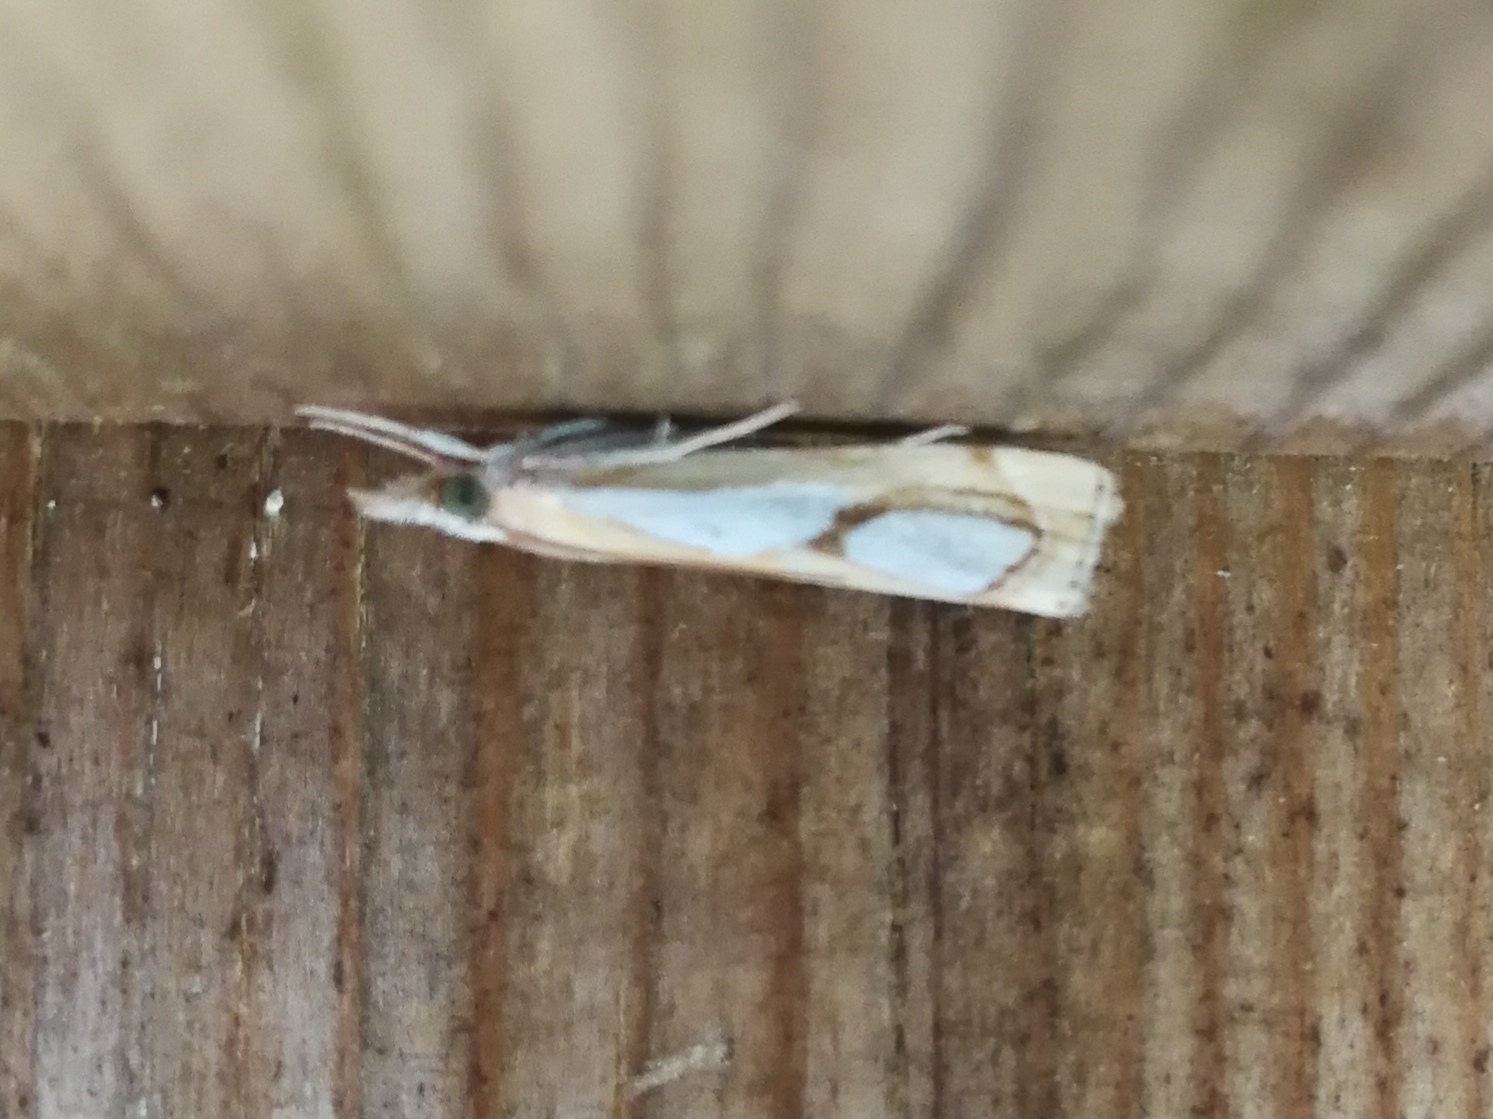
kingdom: Animalia
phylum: Arthropoda
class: Insecta
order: Lepidoptera
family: Crambidae
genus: Catoptria
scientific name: Catoptria pinella
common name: Pearl grass-veneer
